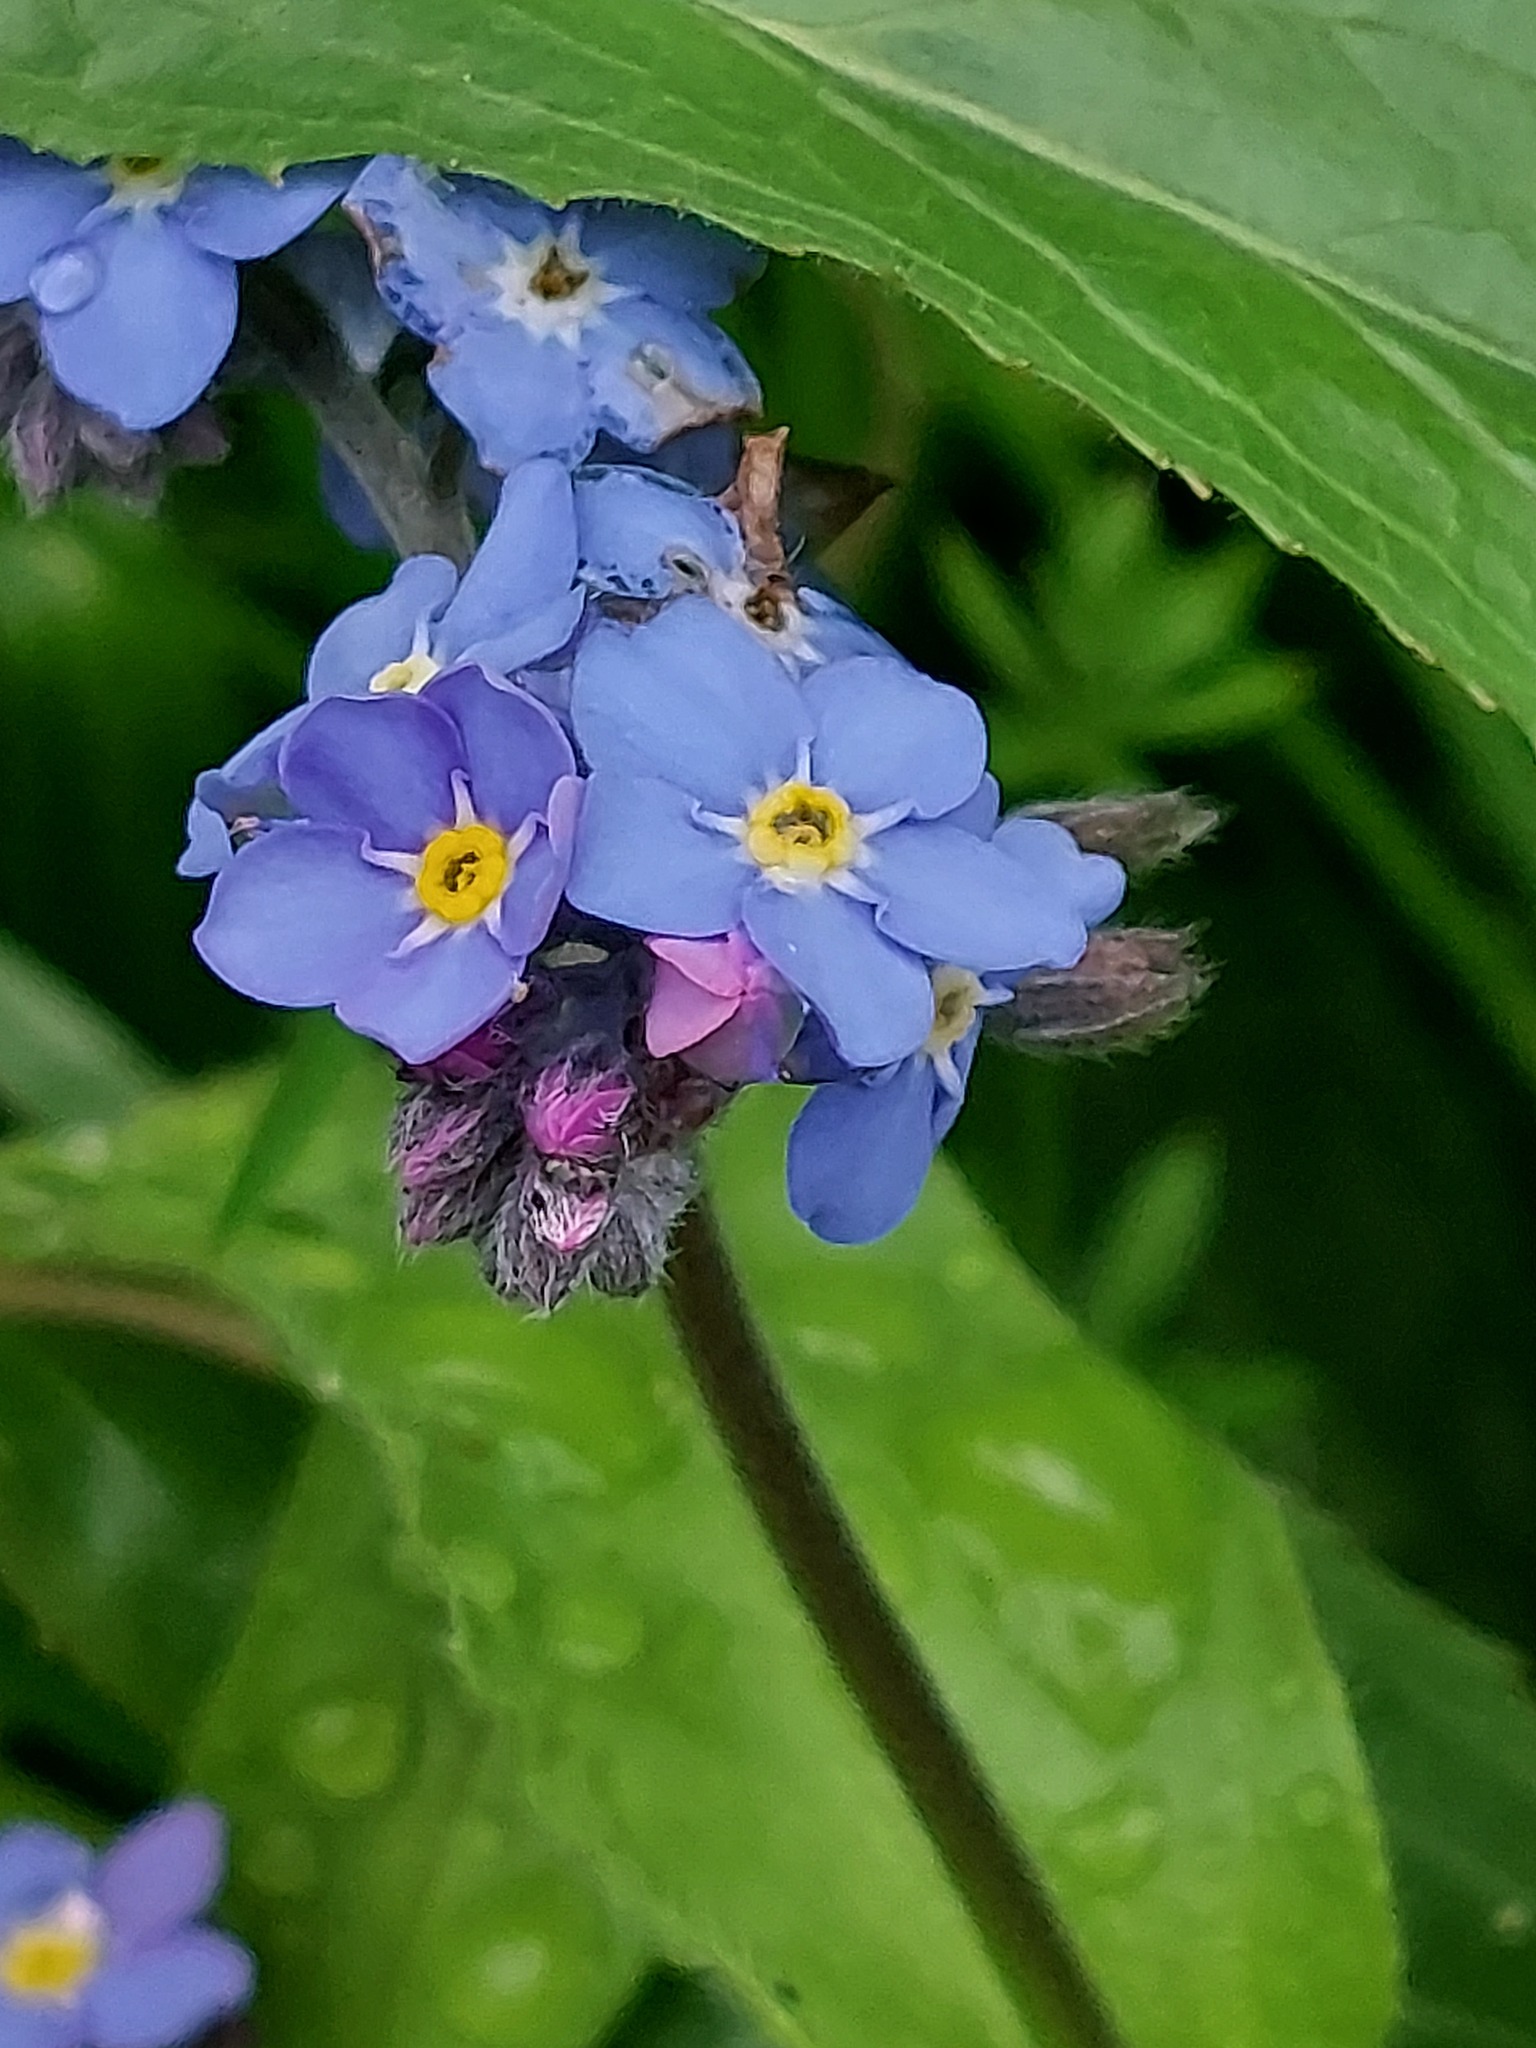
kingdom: Plantae
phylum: Tracheophyta
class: Magnoliopsida
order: Boraginales
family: Boraginaceae
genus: Myosotis
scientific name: Myosotis sylvatica
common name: Wood forget-me-not
